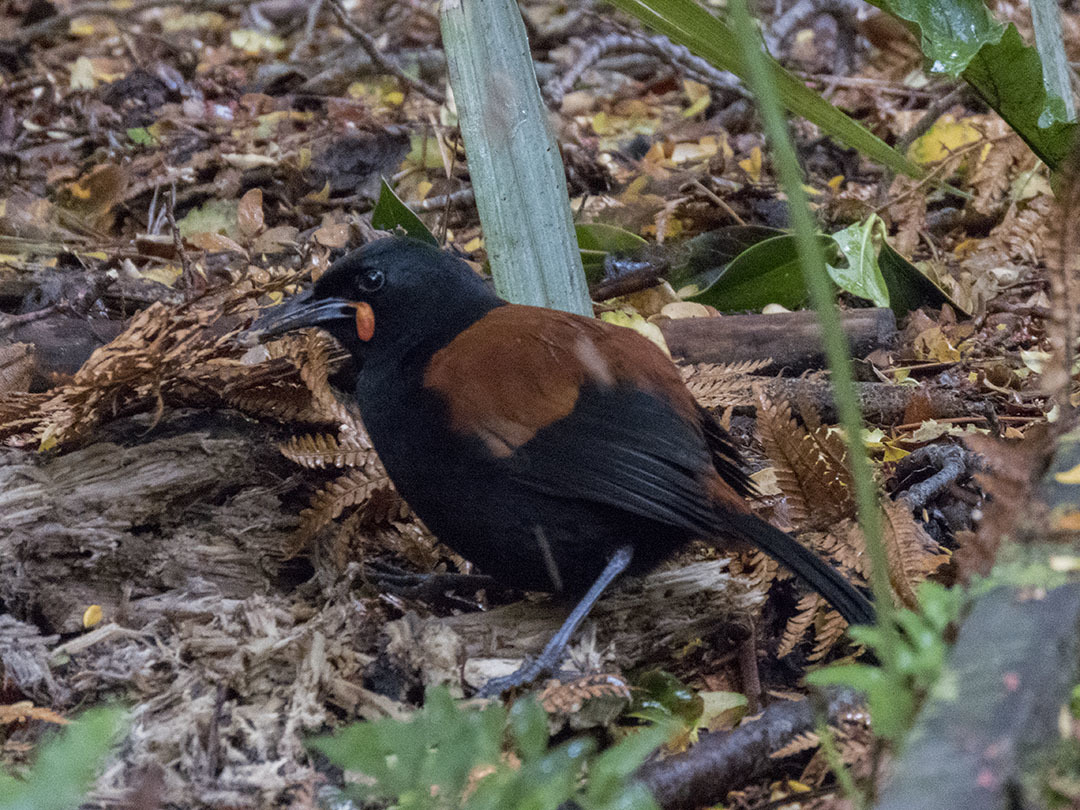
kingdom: Animalia
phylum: Chordata
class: Aves
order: Passeriformes
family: Callaeatidae
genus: Philesturnus
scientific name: Philesturnus carunculatus
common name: South island saddleback
